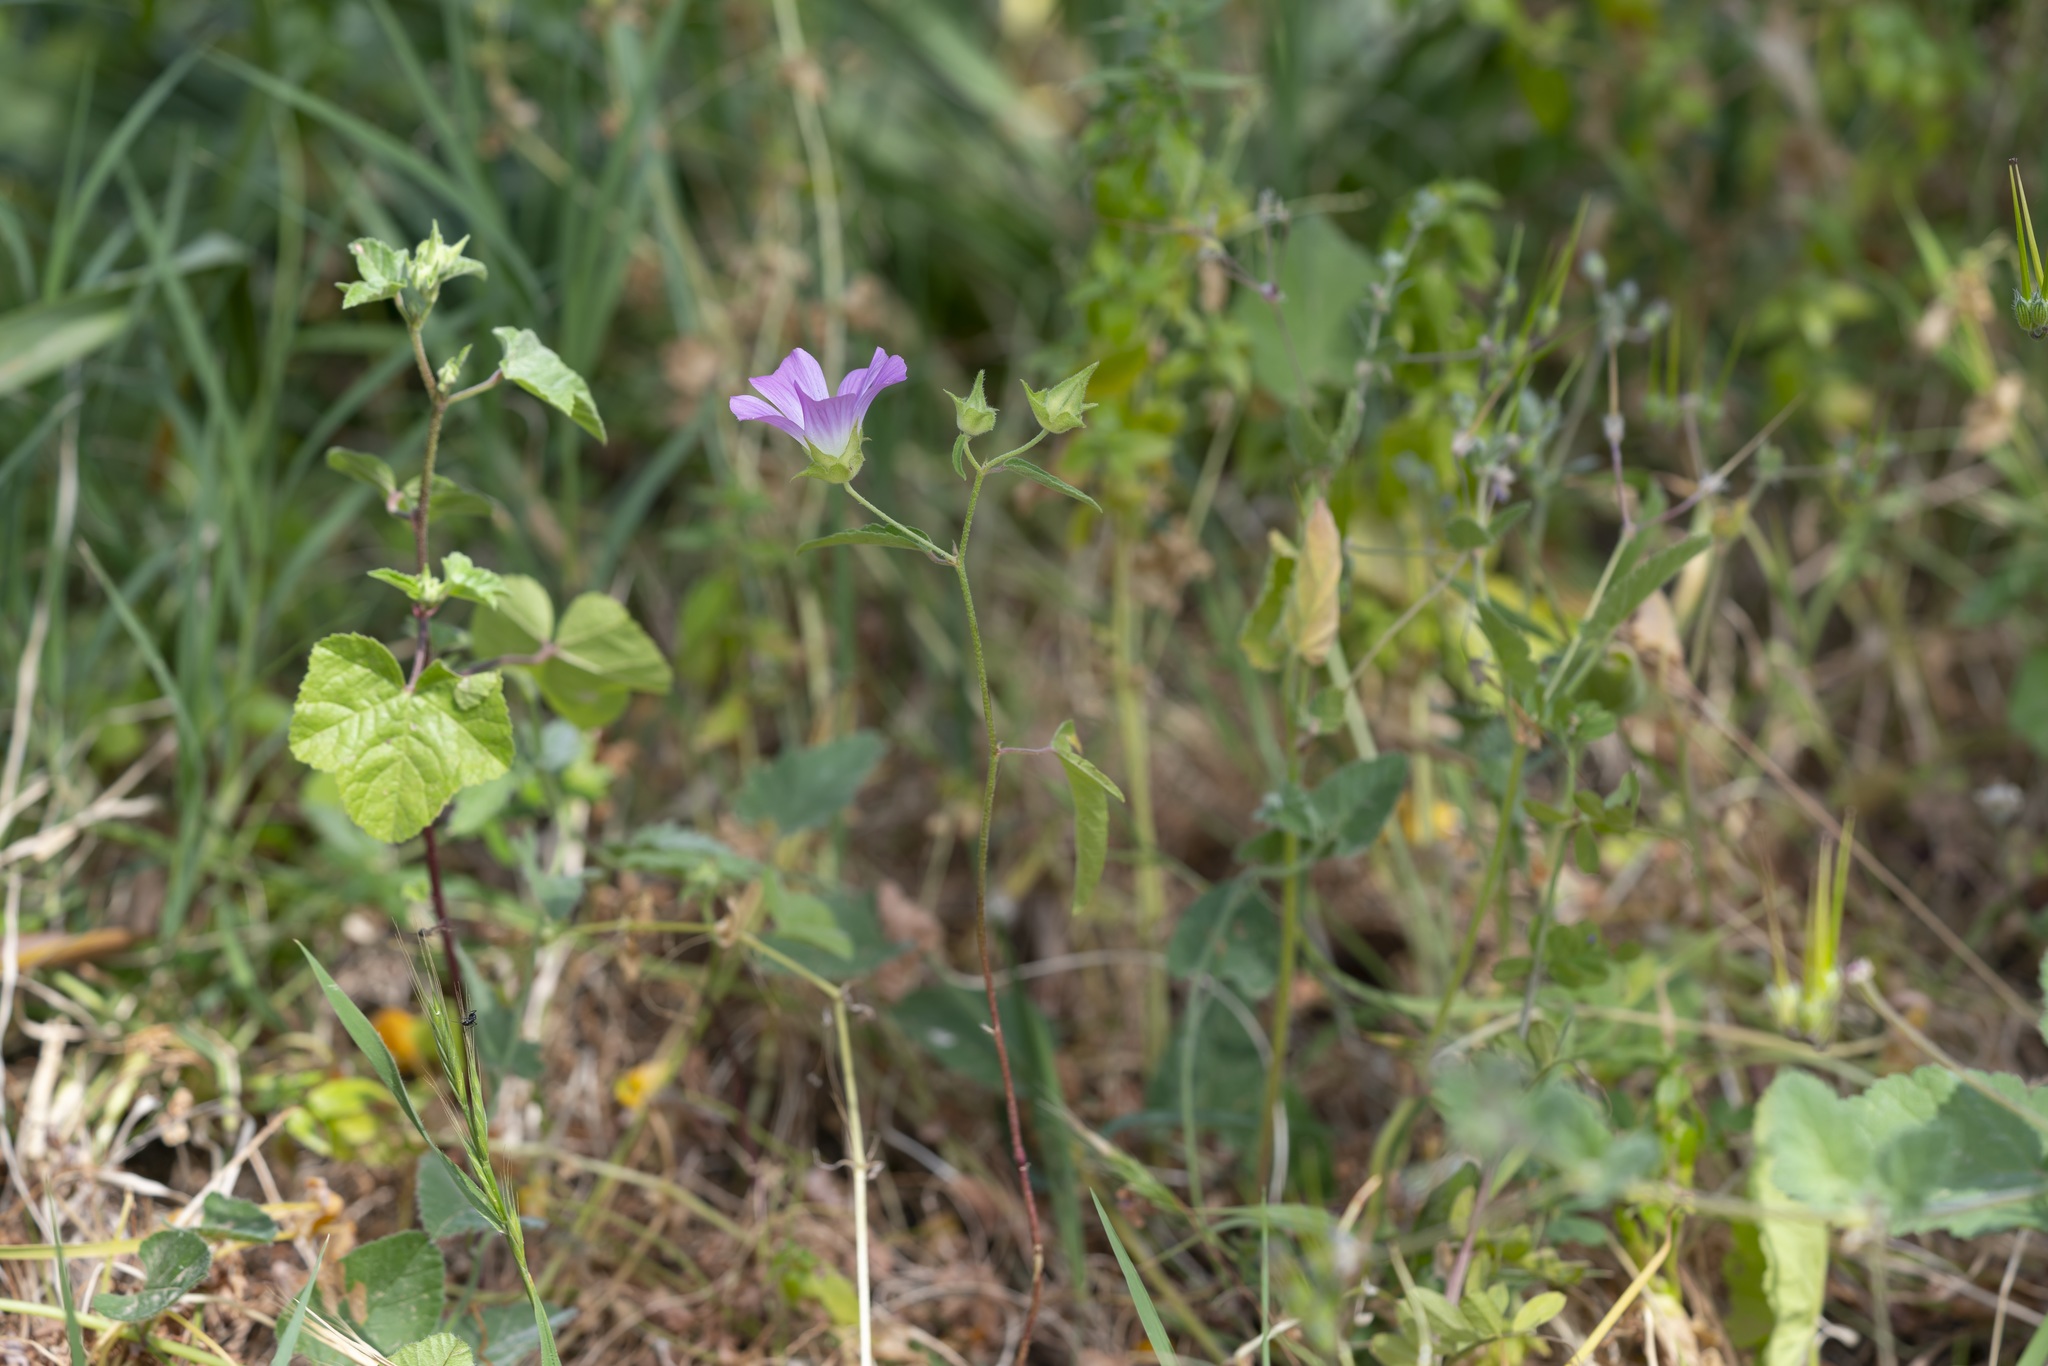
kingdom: Plantae
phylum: Tracheophyta
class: Magnoliopsida
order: Malvales
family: Malvaceae
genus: Malva
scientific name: Malva punctata
